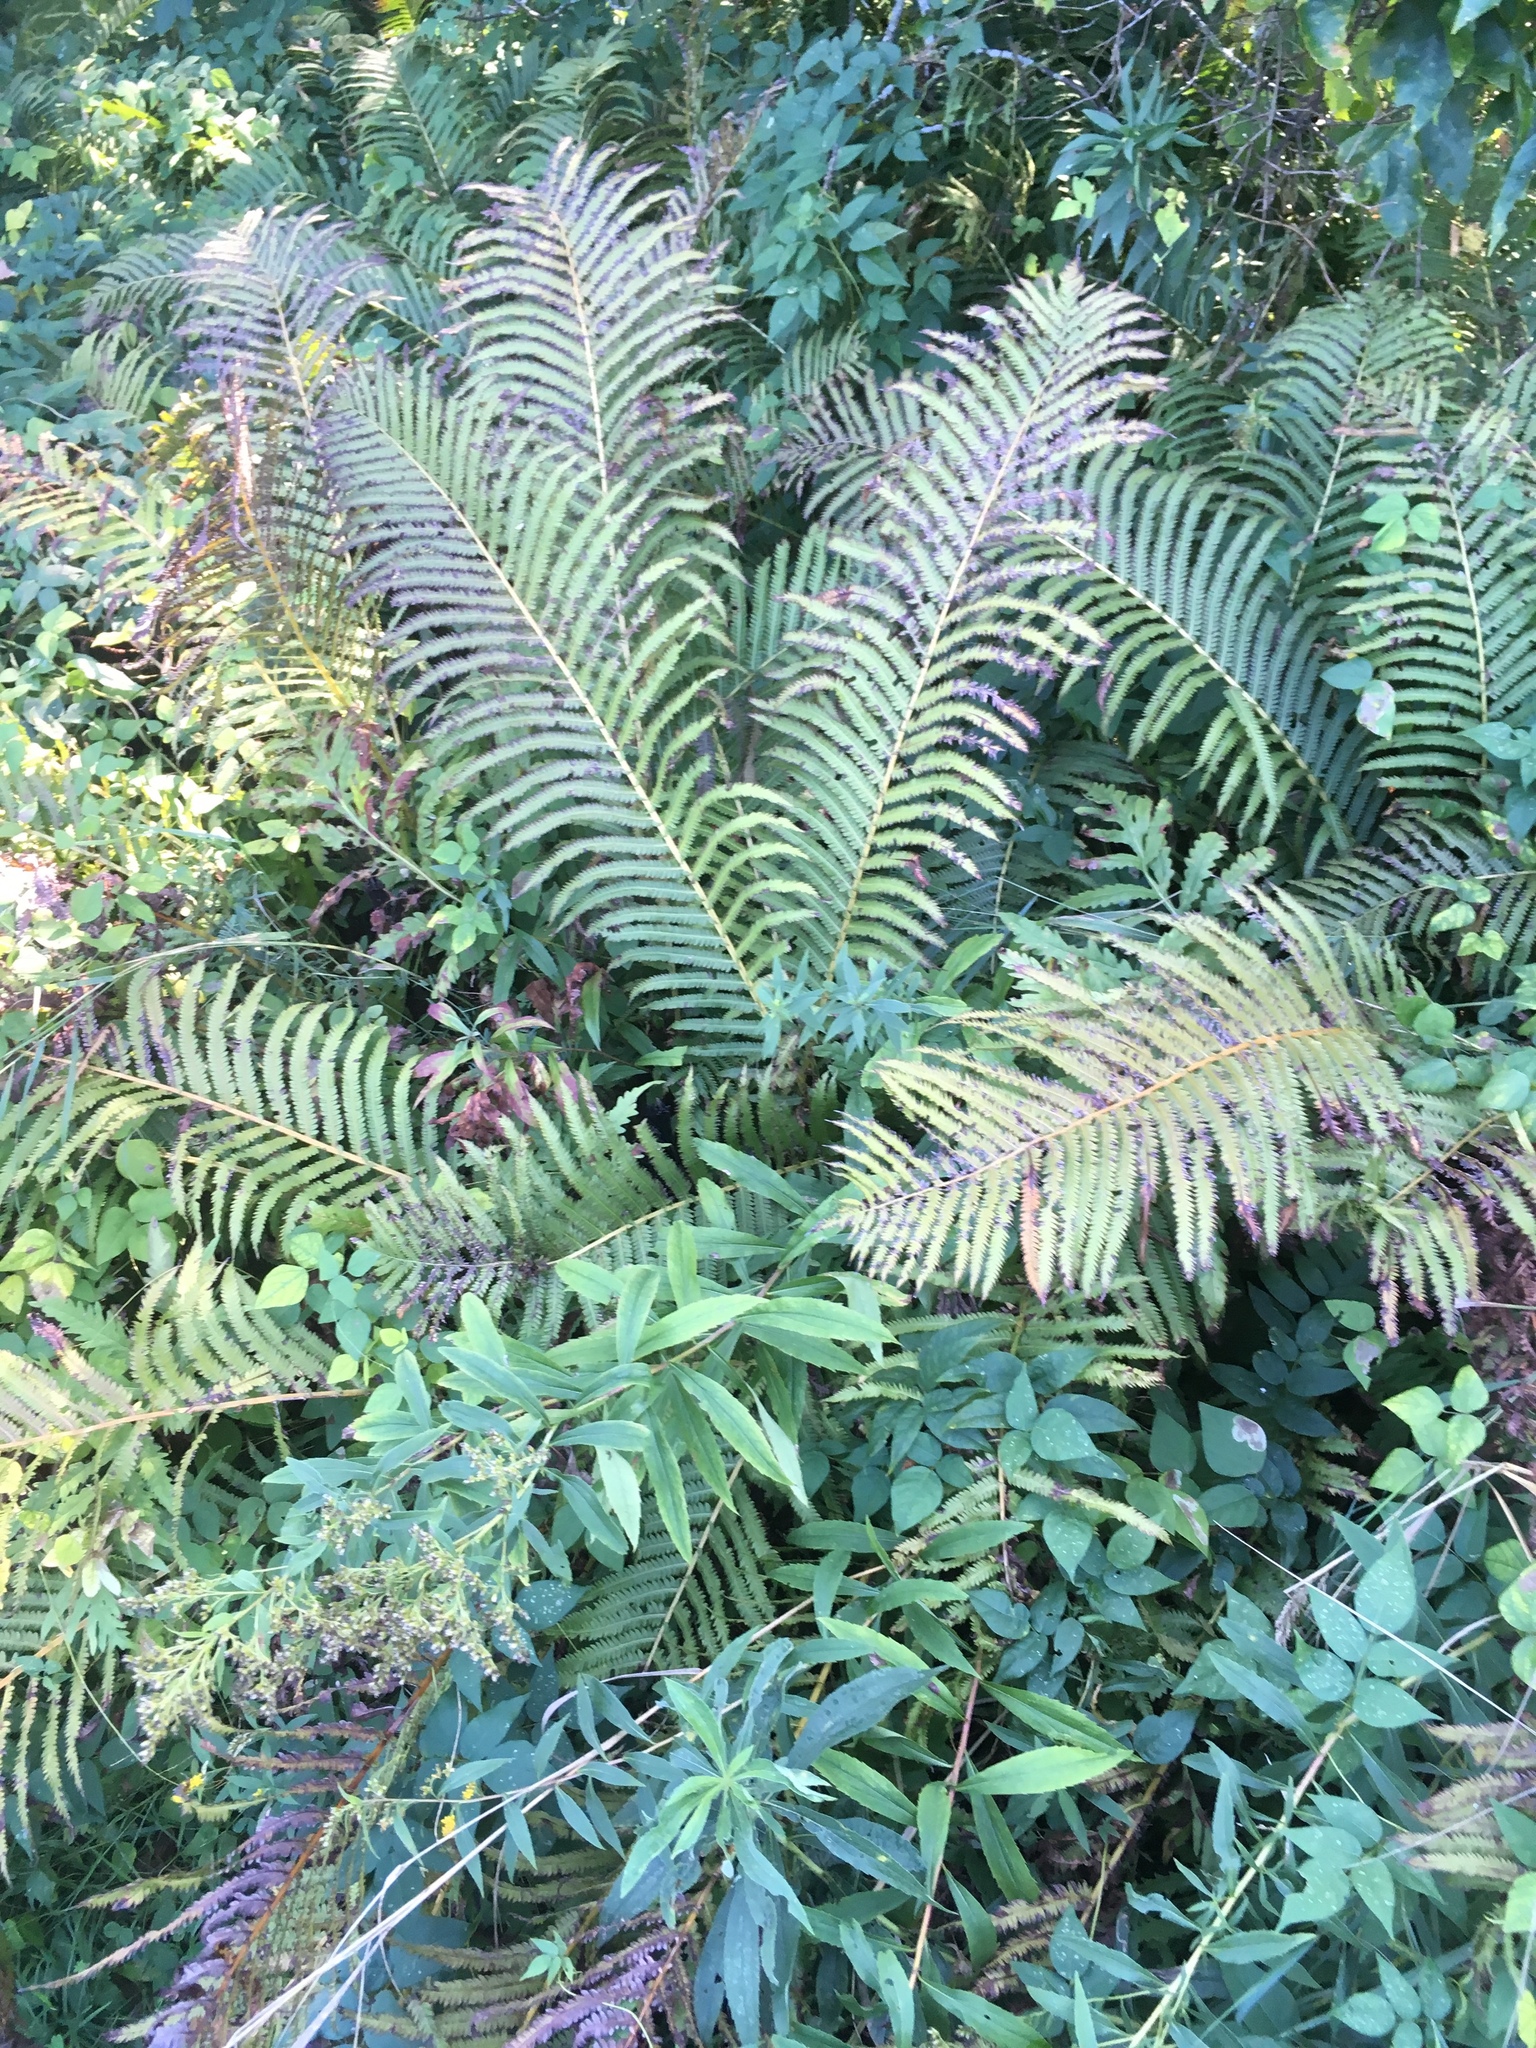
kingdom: Plantae
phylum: Tracheophyta
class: Polypodiopsida
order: Polypodiales
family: Onocleaceae
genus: Matteuccia
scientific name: Matteuccia struthiopteris
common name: Ostrich fern
